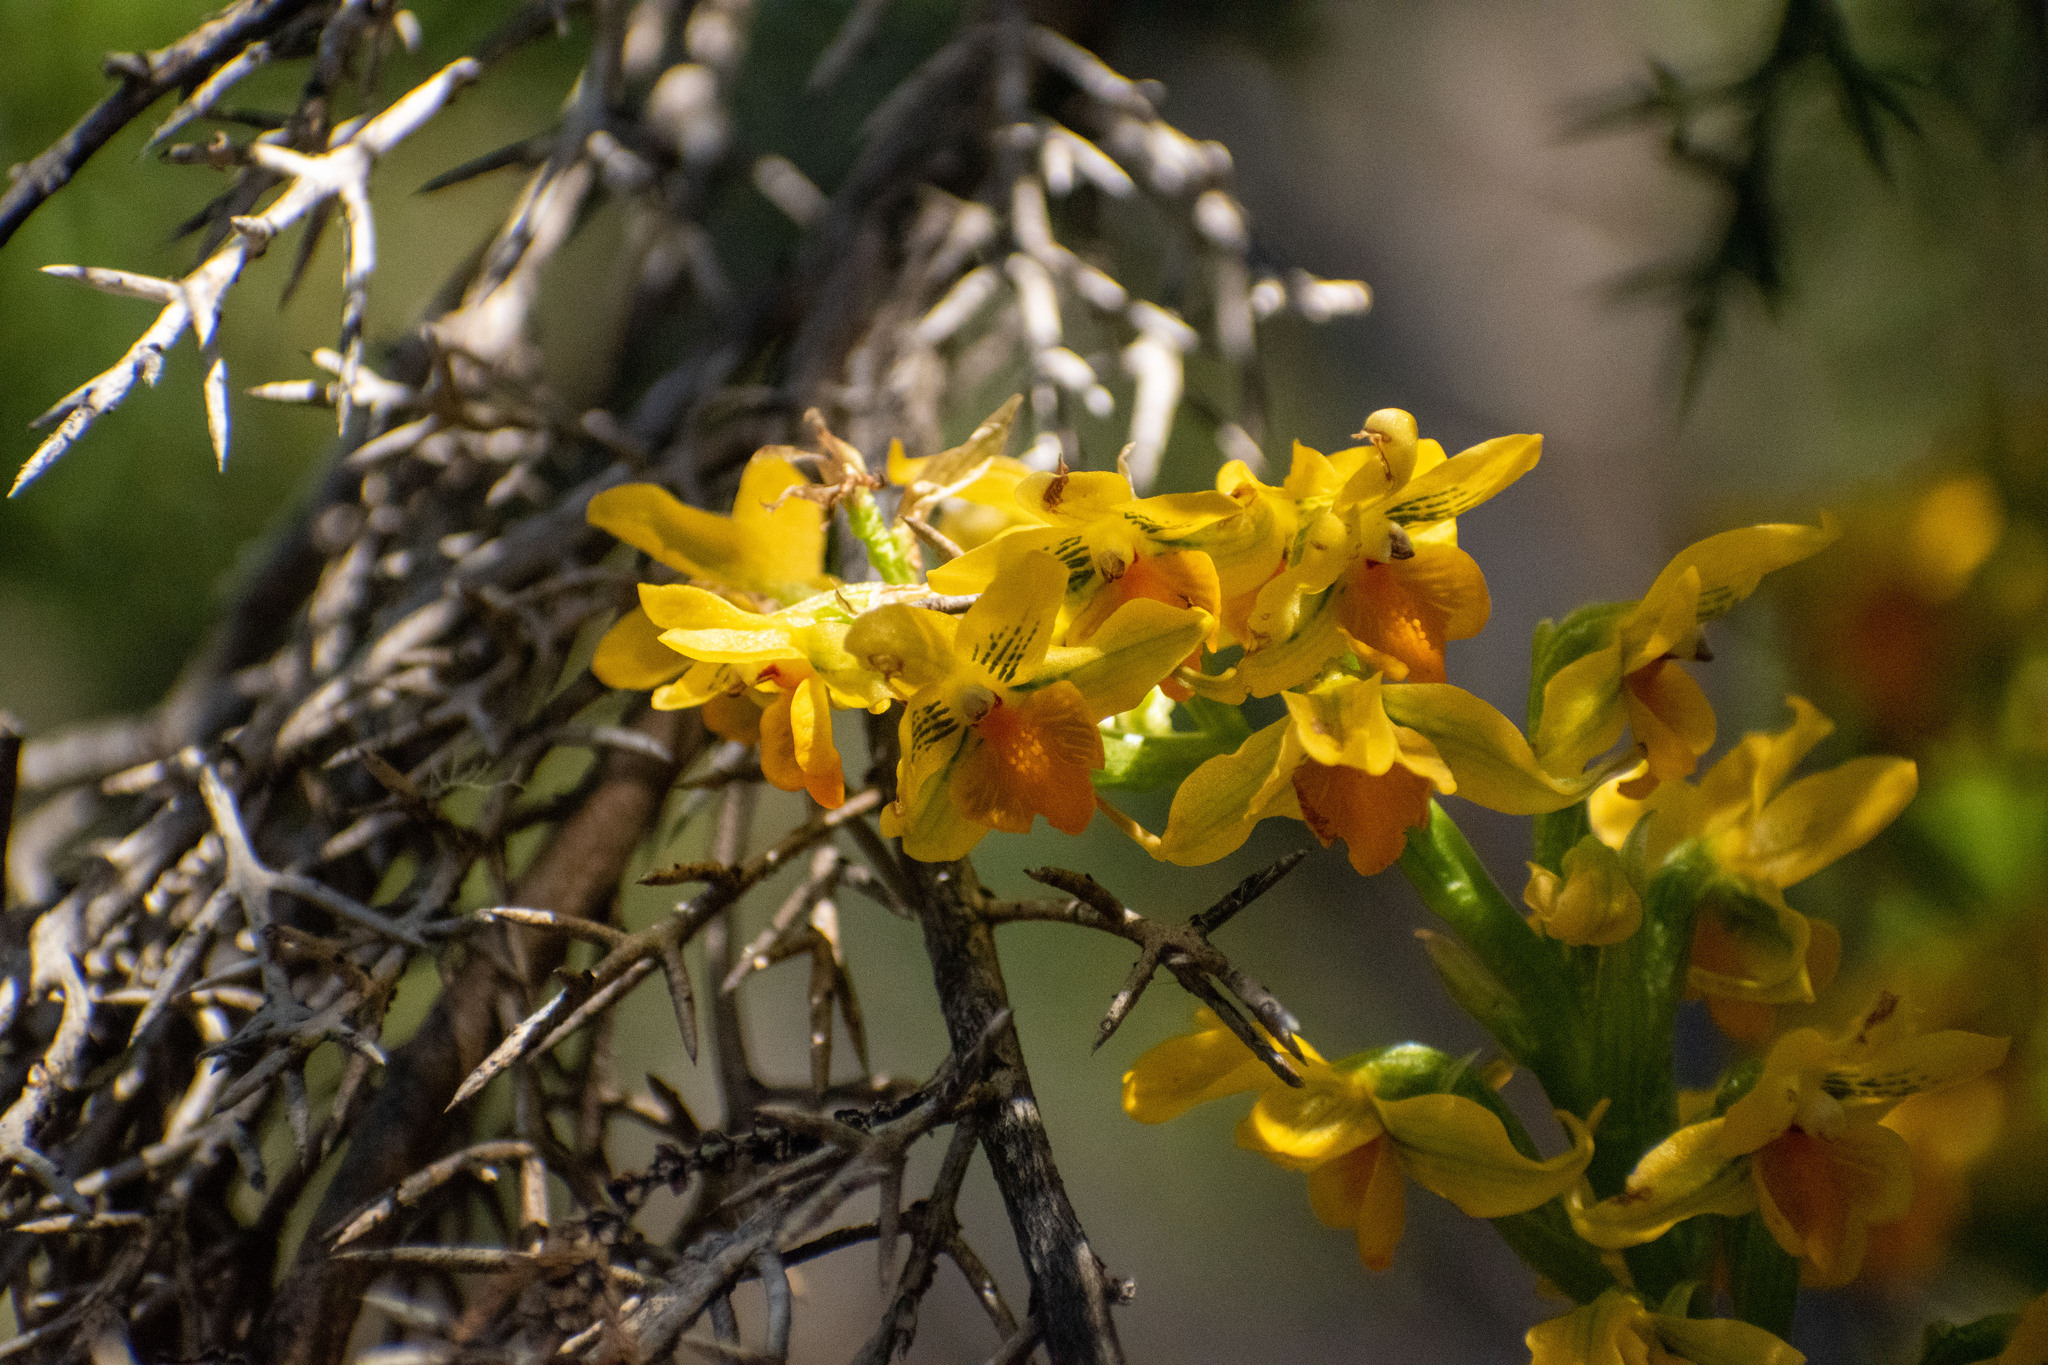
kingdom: Plantae
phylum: Tracheophyta
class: Liliopsida
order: Asparagales
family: Orchidaceae
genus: Gavilea
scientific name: Gavilea odoratissima
